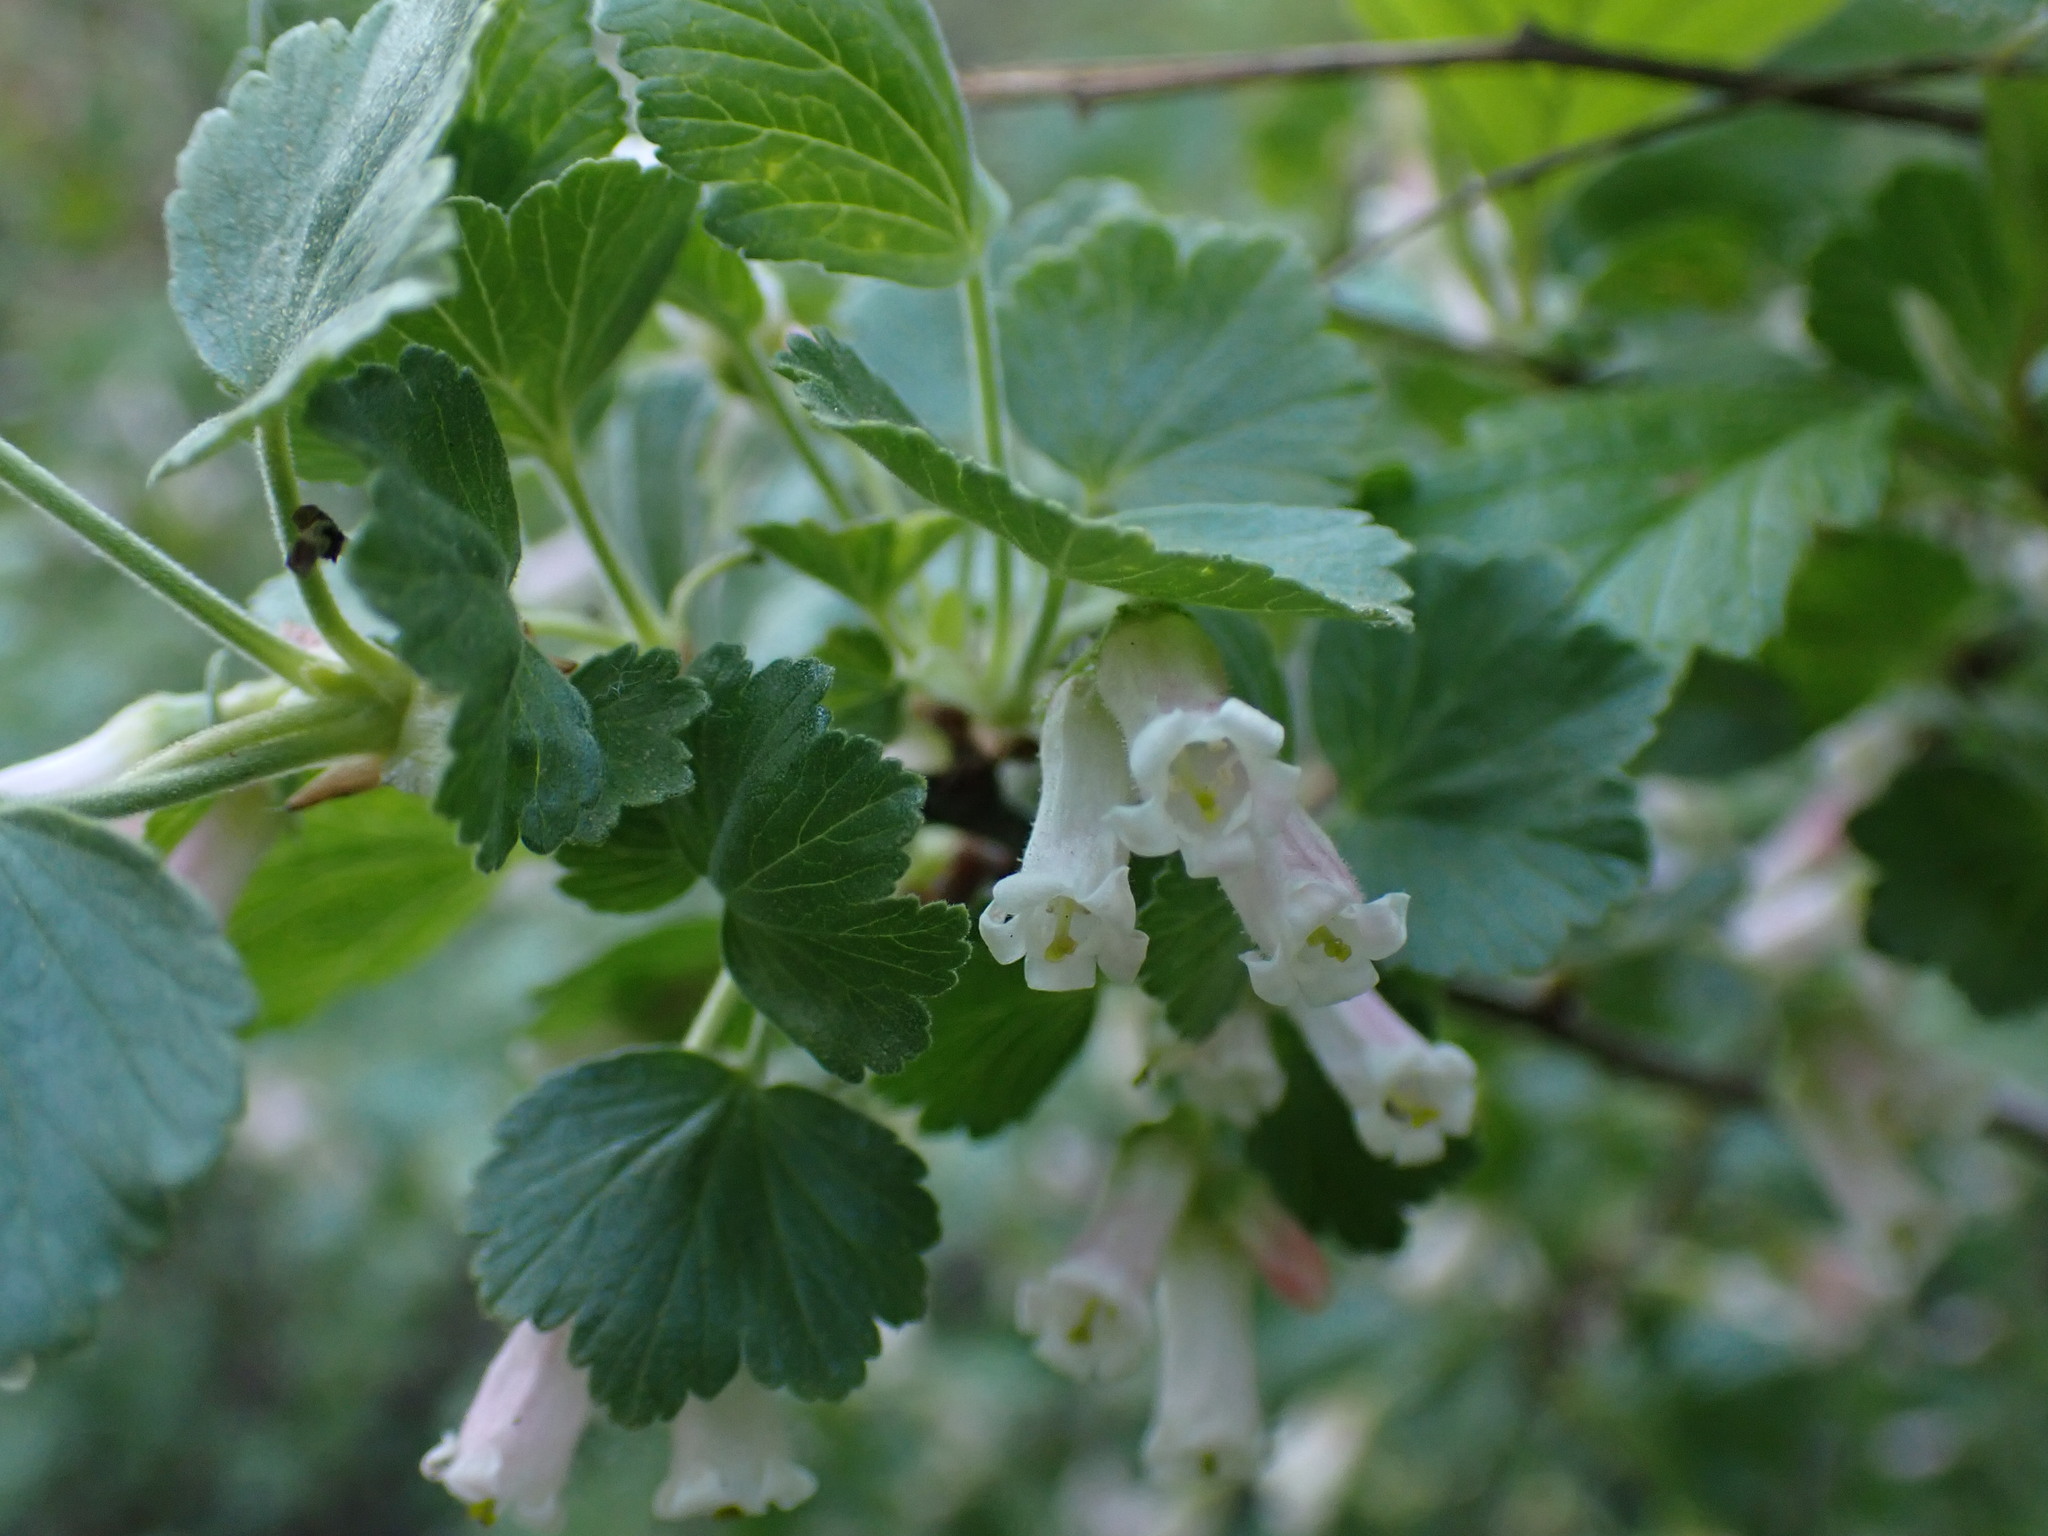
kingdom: Plantae
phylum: Tracheophyta
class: Magnoliopsida
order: Saxifragales
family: Grossulariaceae
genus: Ribes
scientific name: Ribes cereum
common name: Wax currant
